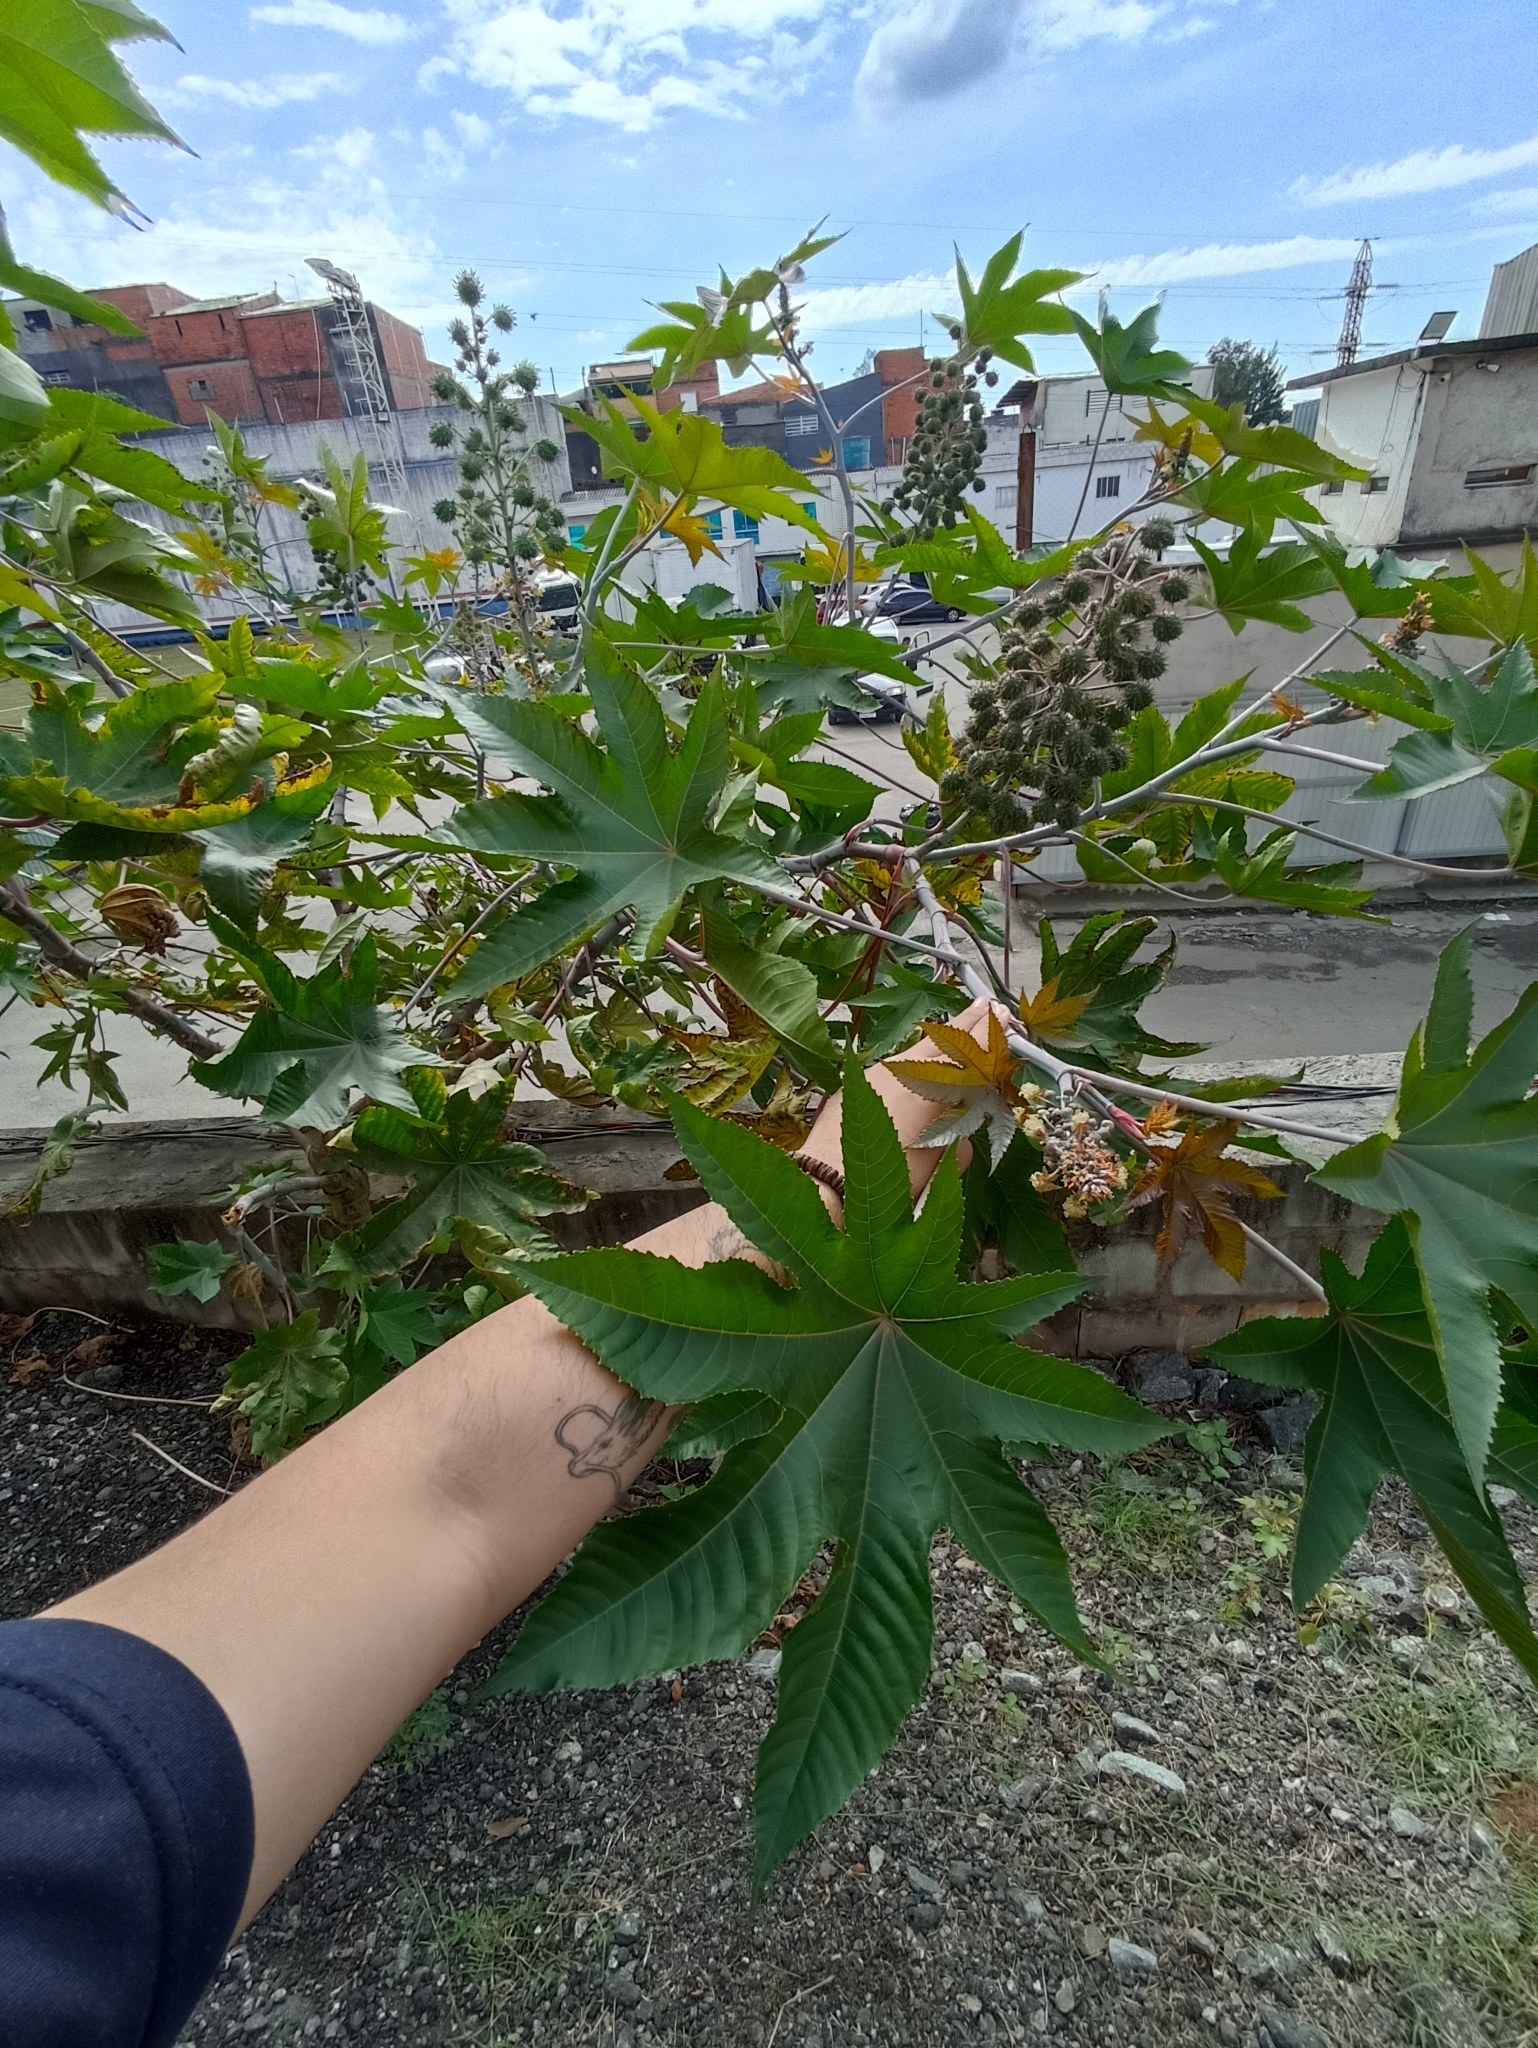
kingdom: Plantae
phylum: Tracheophyta
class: Magnoliopsida
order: Malpighiales
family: Euphorbiaceae
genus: Ricinus
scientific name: Ricinus communis
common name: Castor-oil-plant
